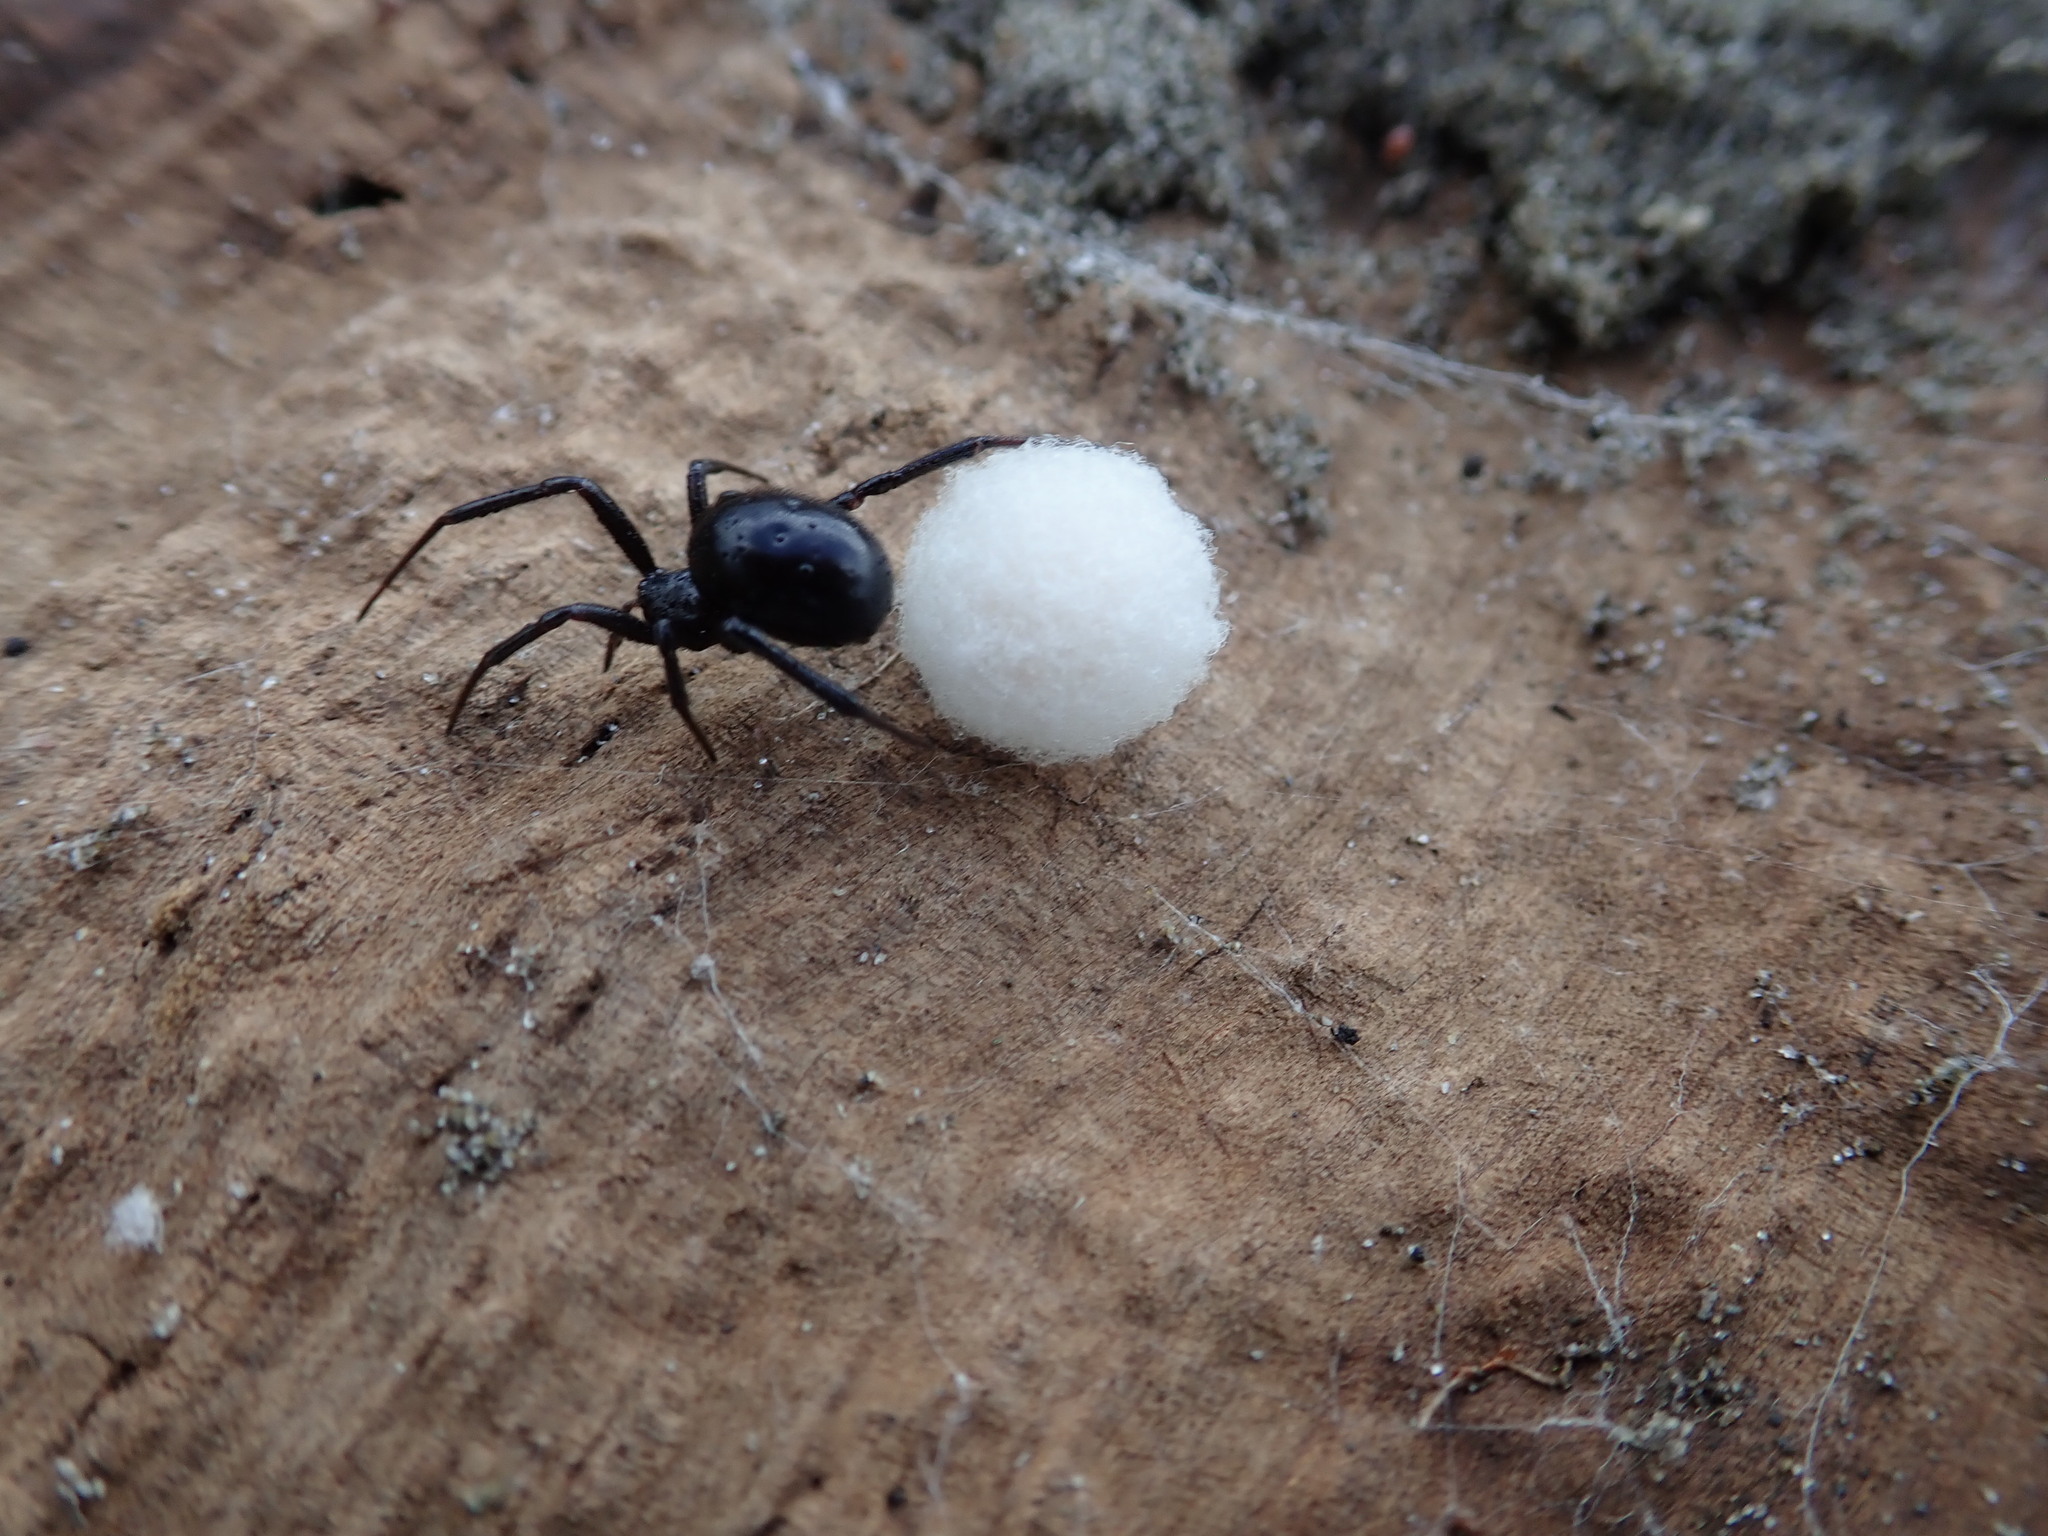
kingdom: Animalia
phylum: Arthropoda
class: Arachnida
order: Araneae
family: Theridiidae
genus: Steatoda
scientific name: Steatoda capensis
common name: Cobweb weaver
